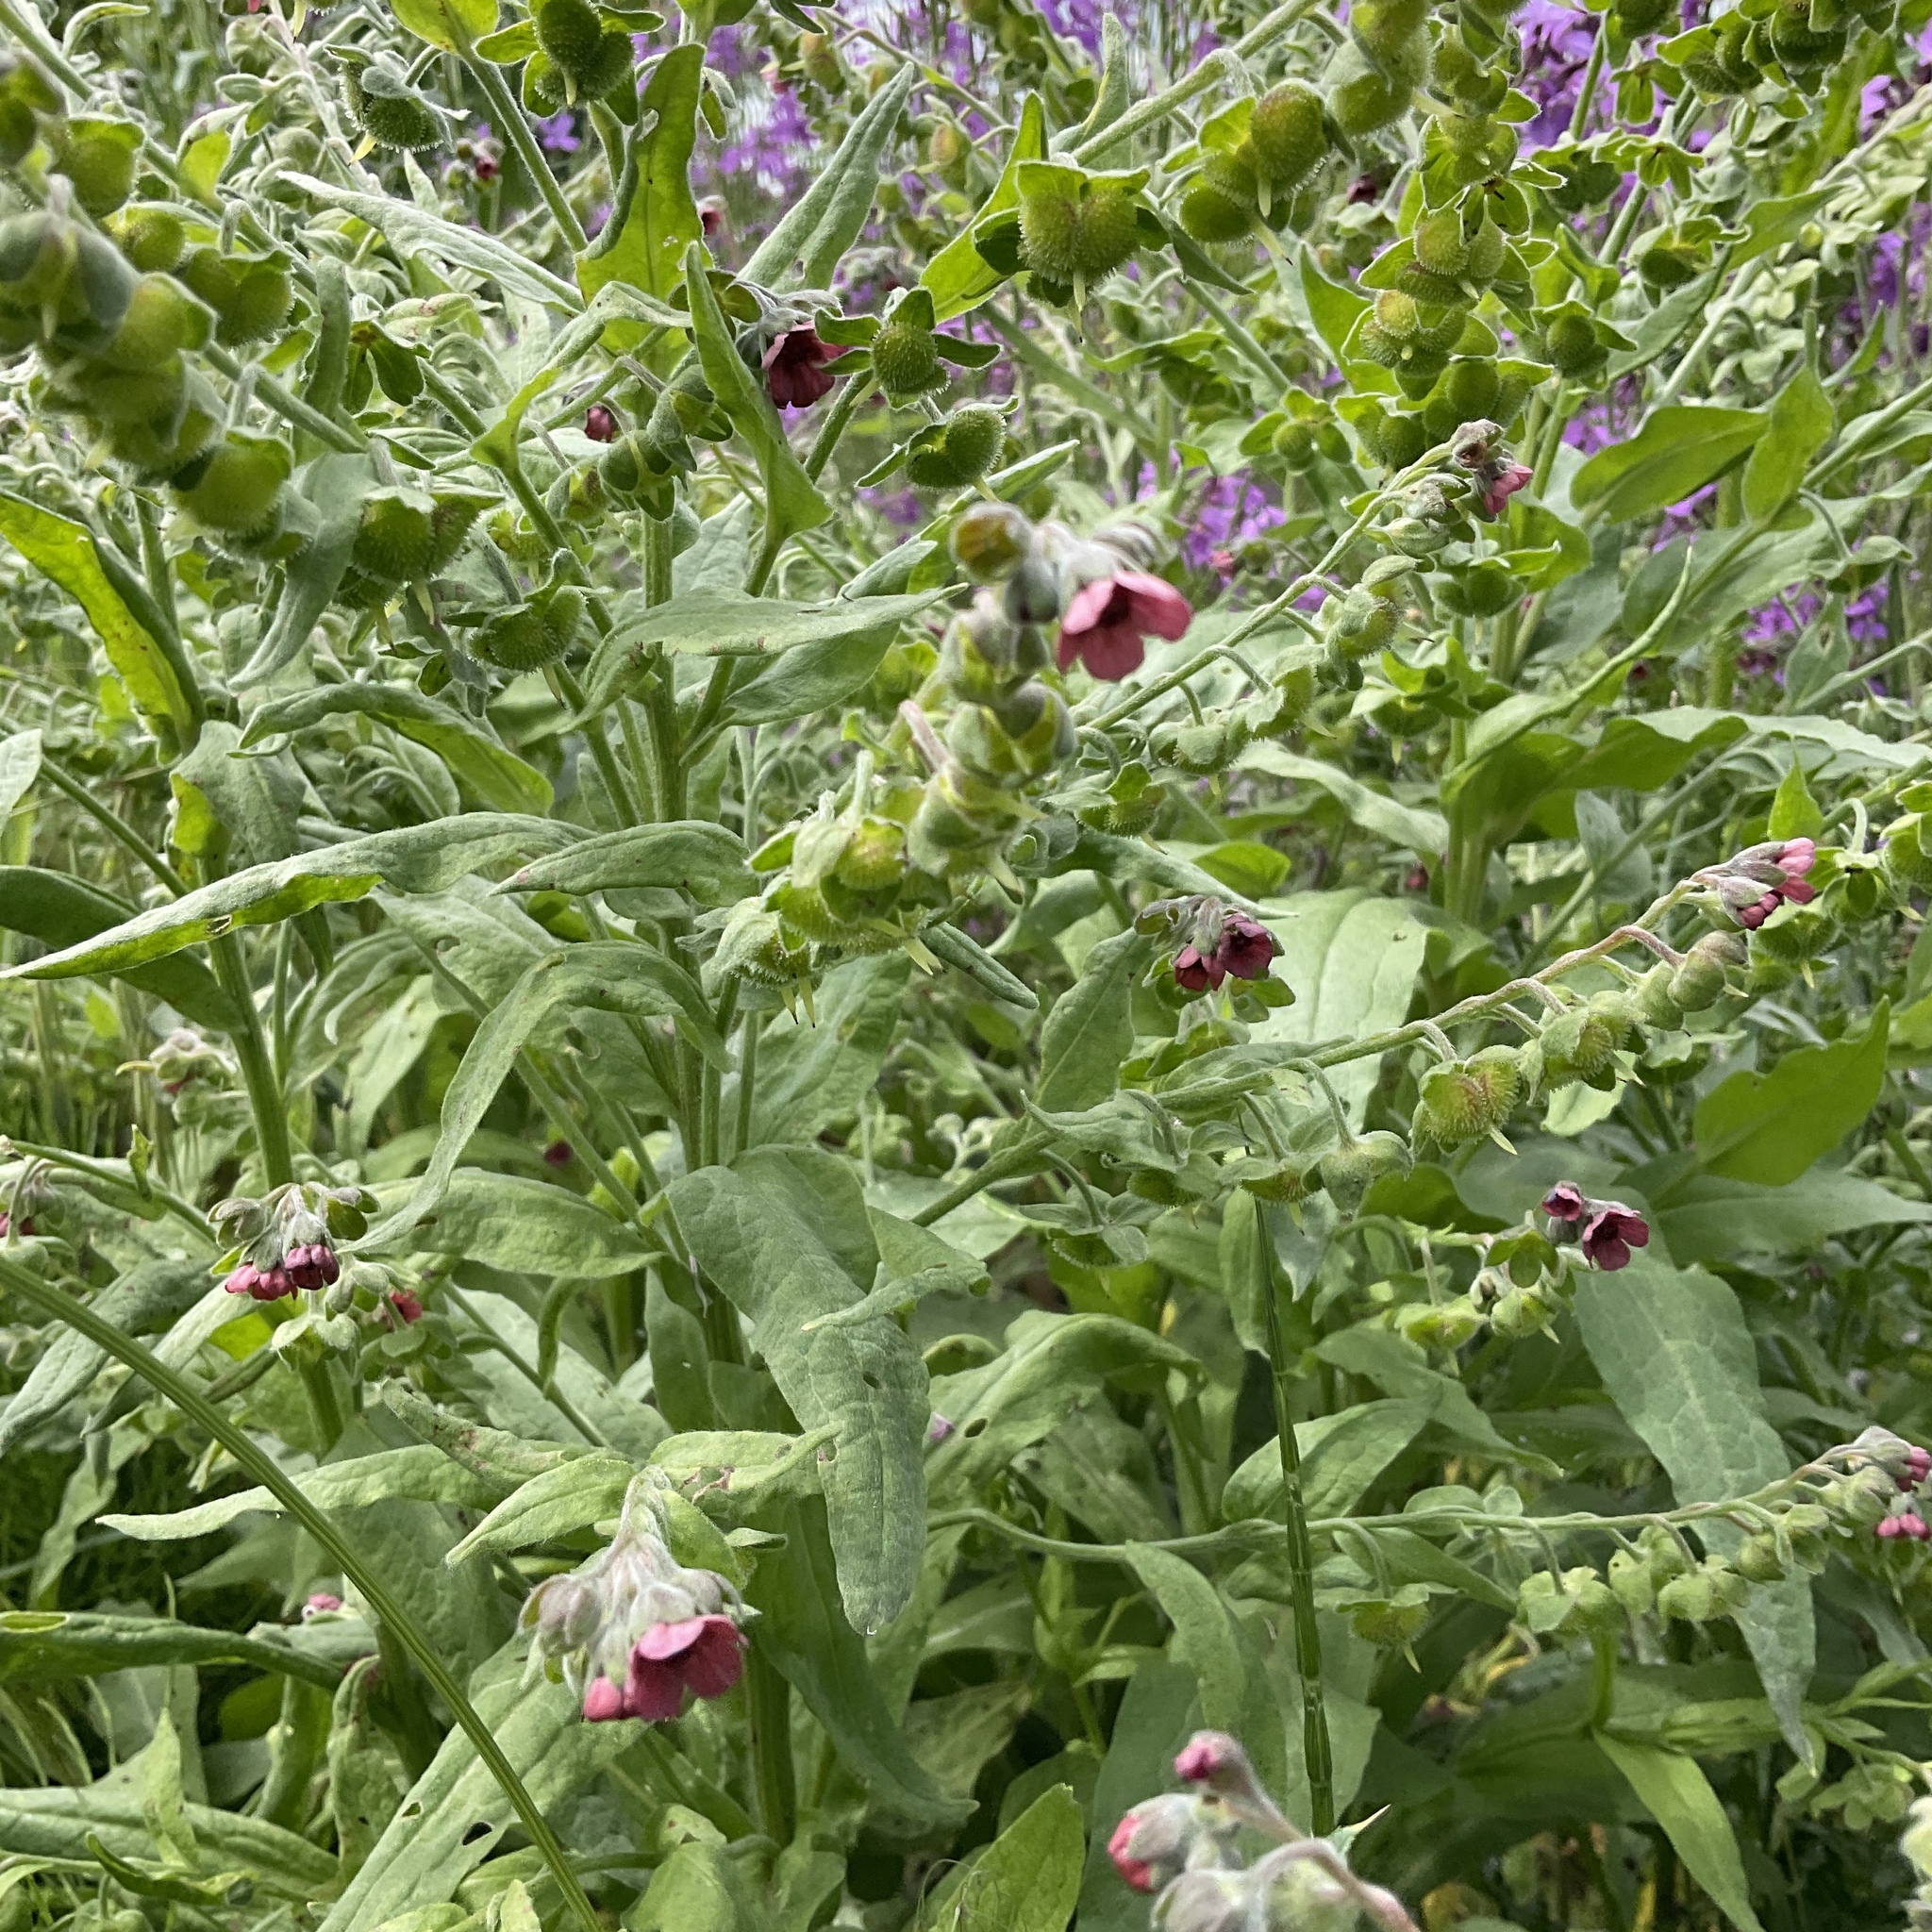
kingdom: Plantae
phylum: Tracheophyta
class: Magnoliopsida
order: Boraginales
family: Boraginaceae
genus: Cynoglossum
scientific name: Cynoglossum officinale
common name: Hound's-tongue
